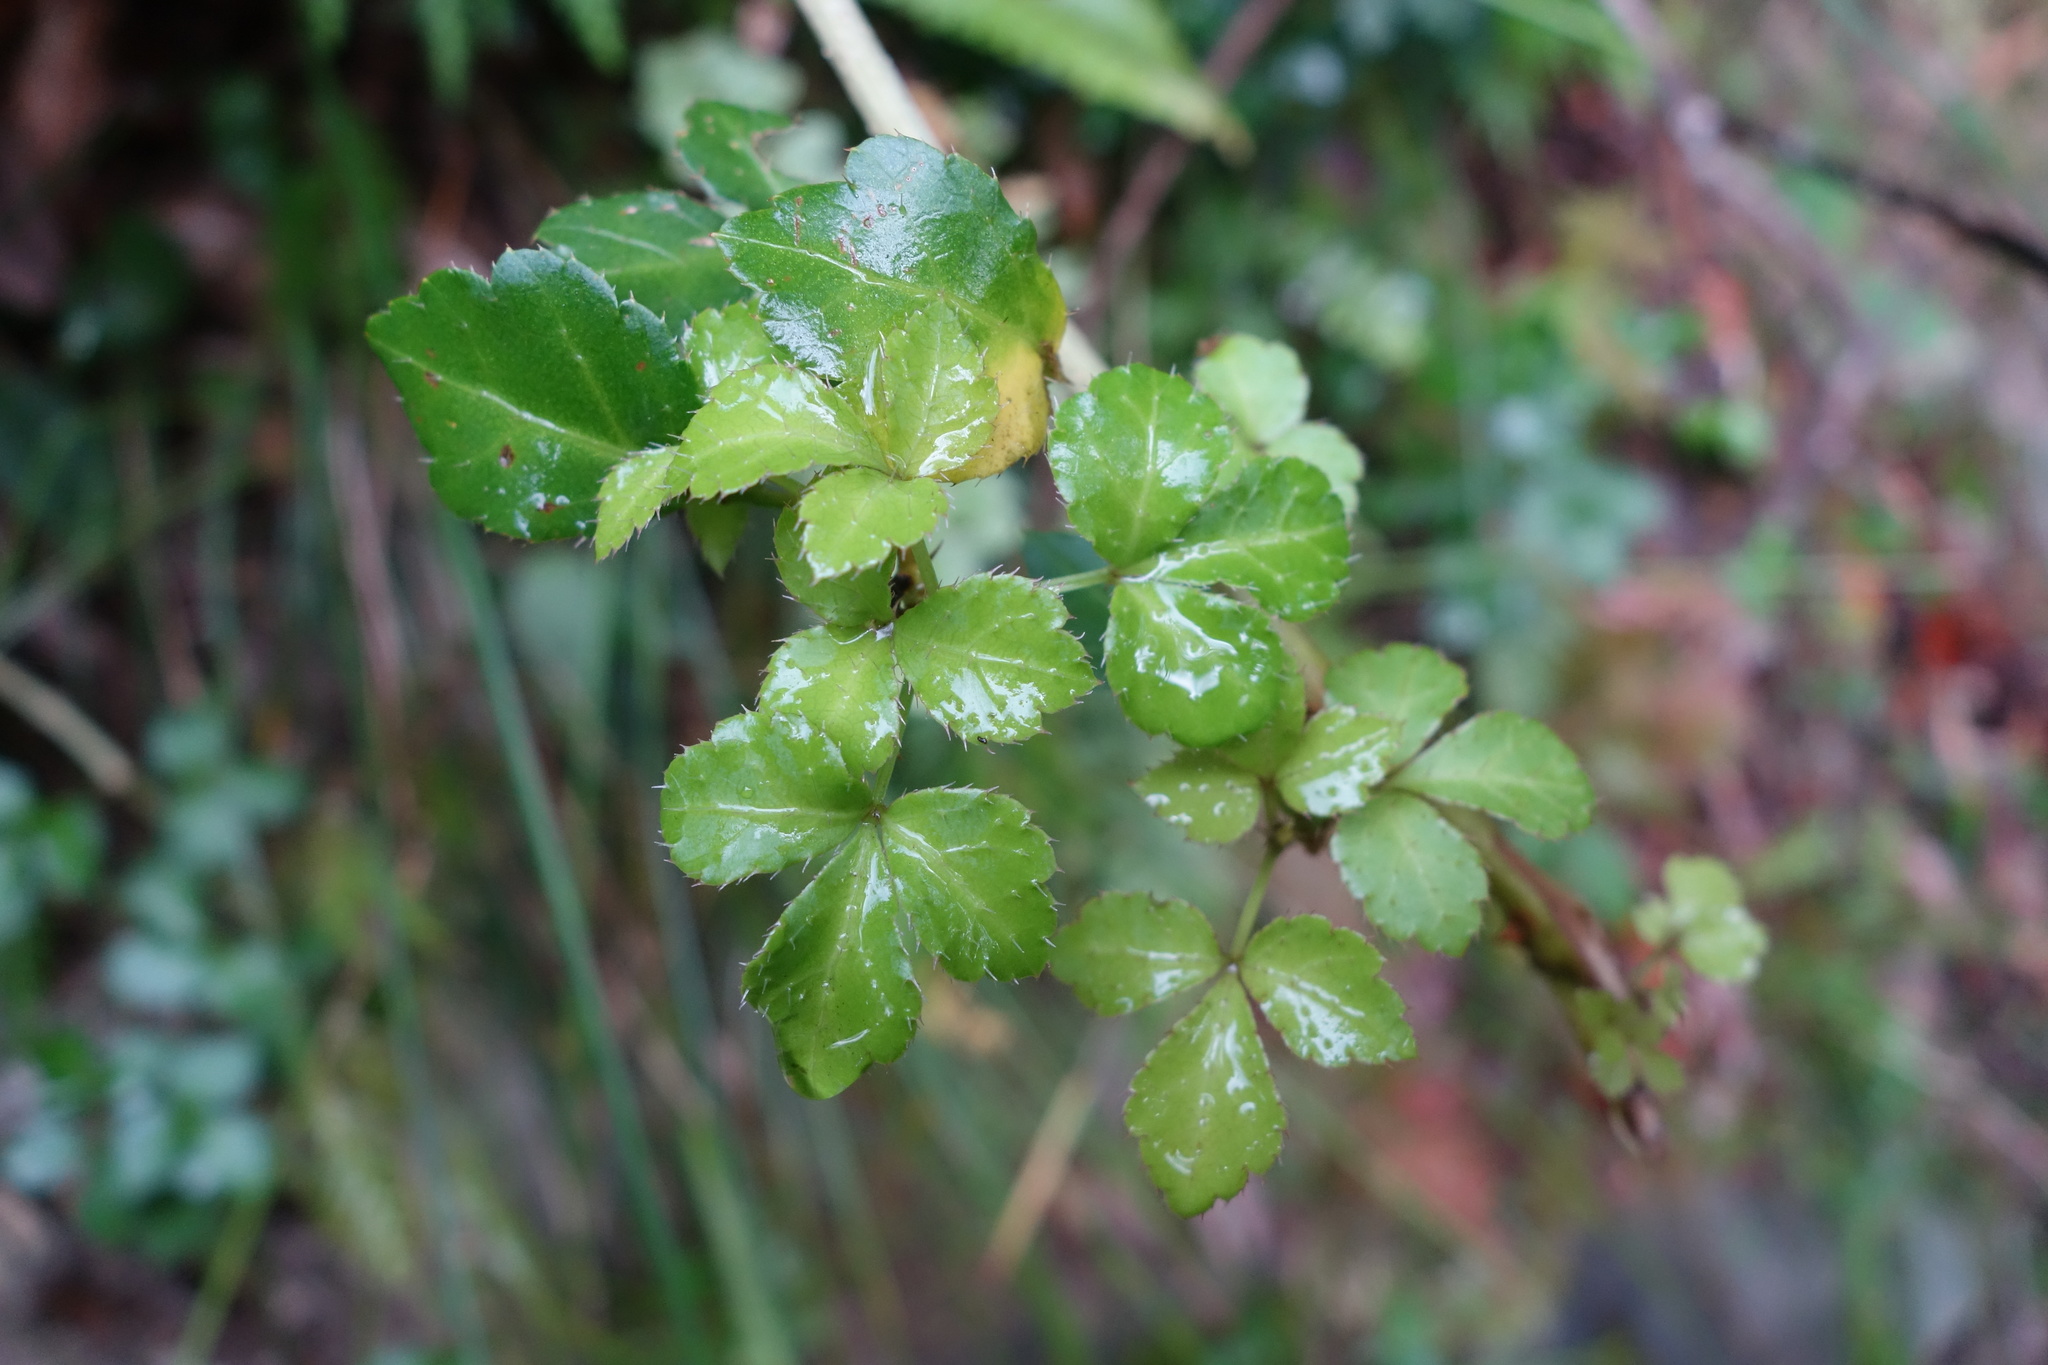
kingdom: Plantae
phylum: Tracheophyta
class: Magnoliopsida
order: Apiales
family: Araliaceae
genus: Eleutherococcus
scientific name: Eleutherococcus setosus
